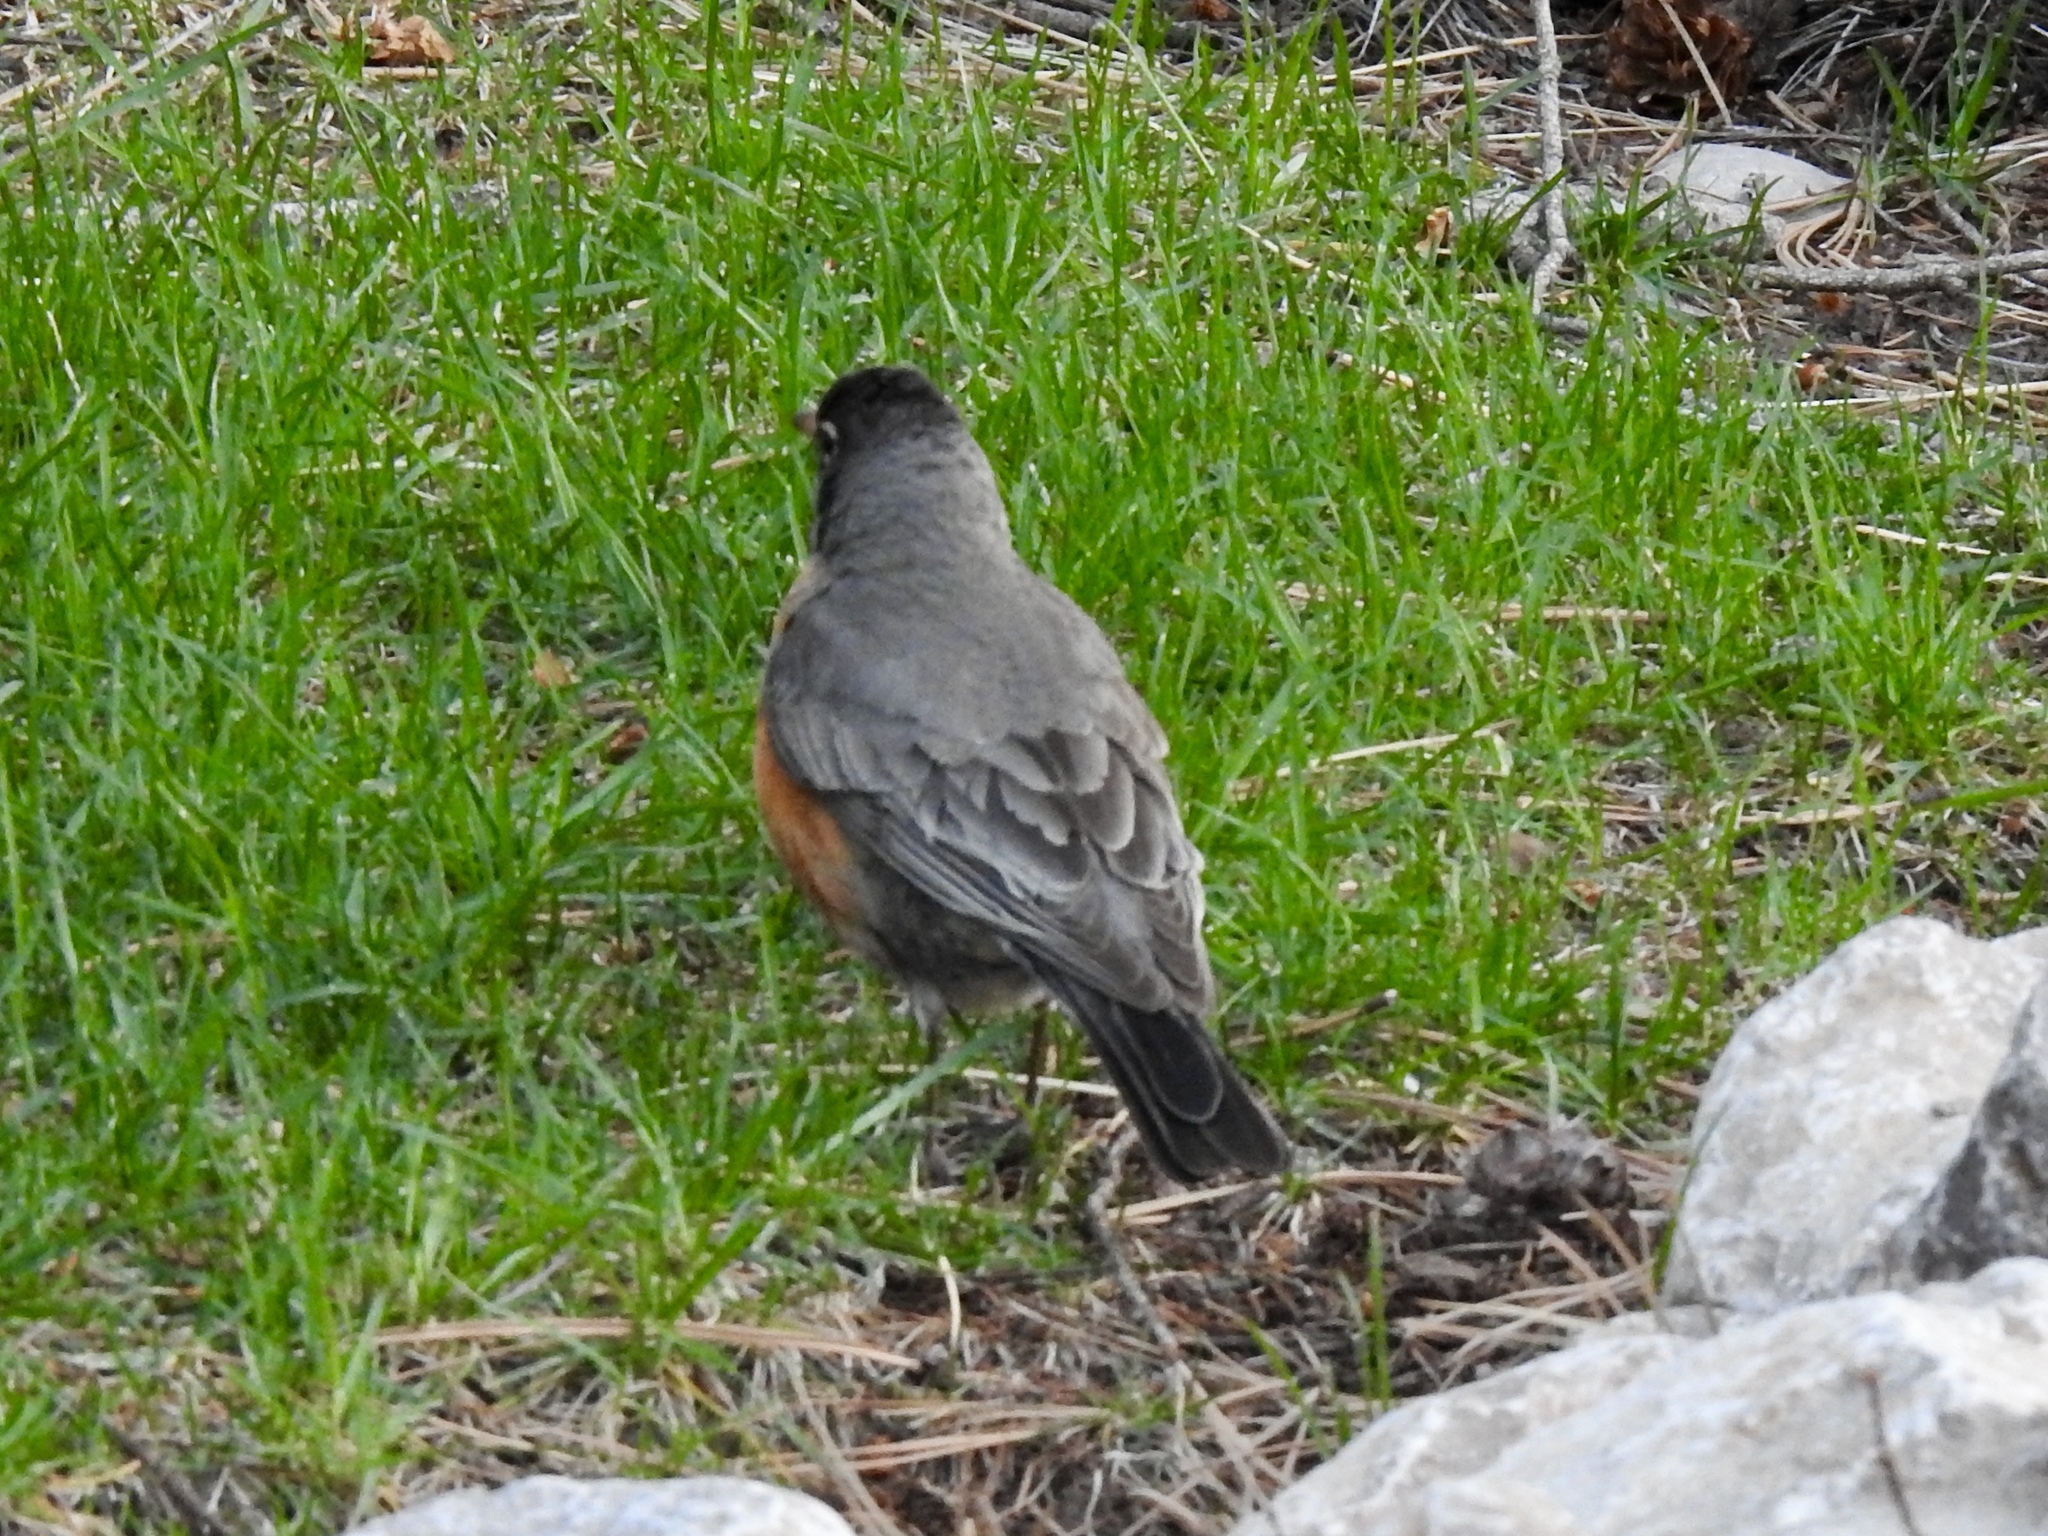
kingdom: Animalia
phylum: Chordata
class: Aves
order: Passeriformes
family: Turdidae
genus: Turdus
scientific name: Turdus migratorius
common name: American robin
